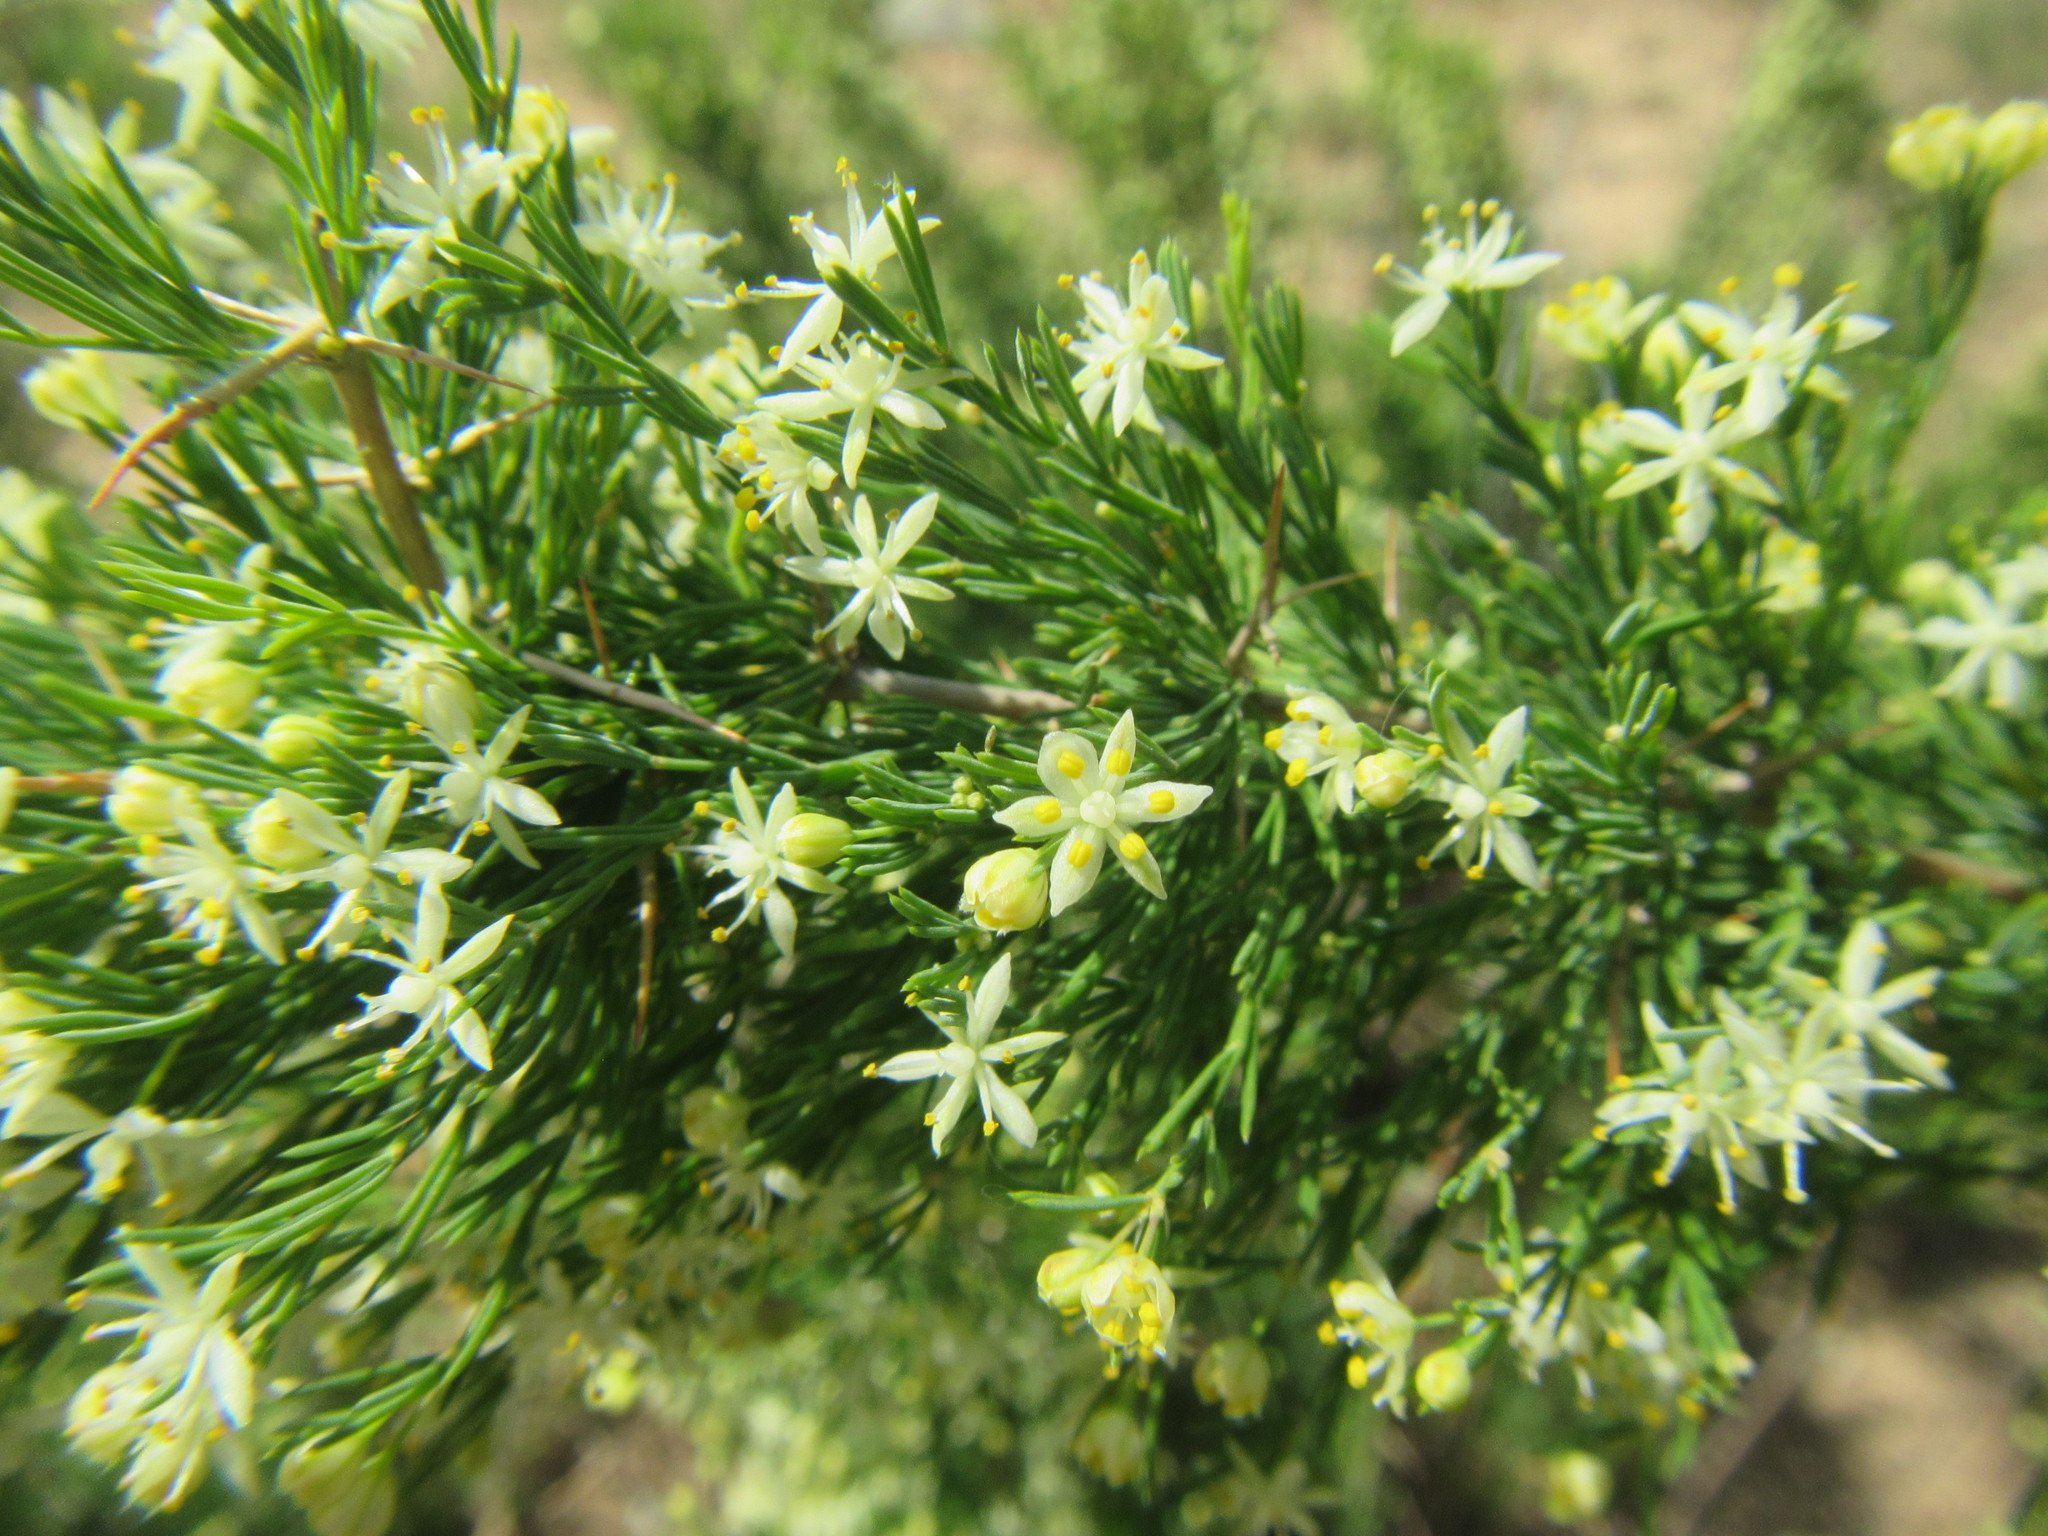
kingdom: Plantae
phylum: Tracheophyta
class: Liliopsida
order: Asparagales
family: Asparagaceae
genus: Asparagus
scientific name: Asparagus suaveolens
